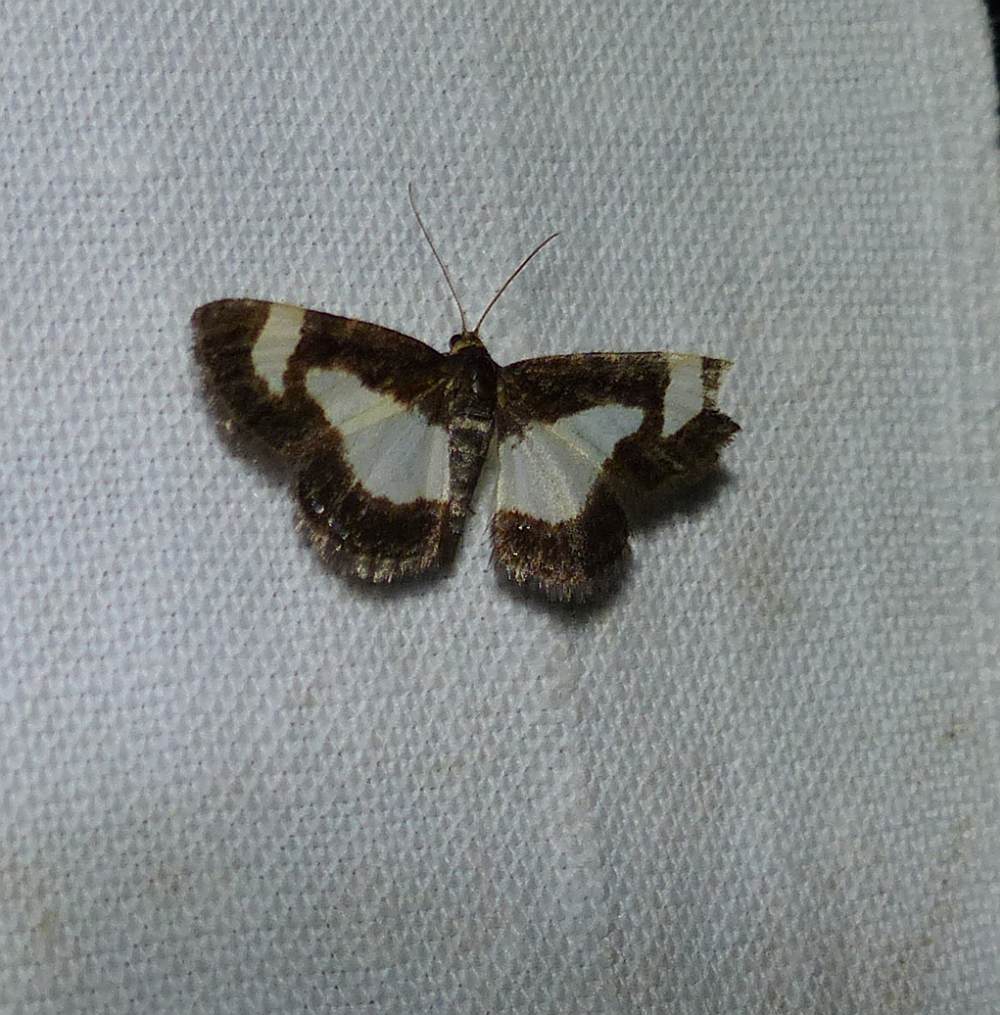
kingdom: Animalia
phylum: Arthropoda
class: Insecta
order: Lepidoptera
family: Geometridae
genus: Heliomata
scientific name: Heliomata cycladata
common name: Common spring moth
